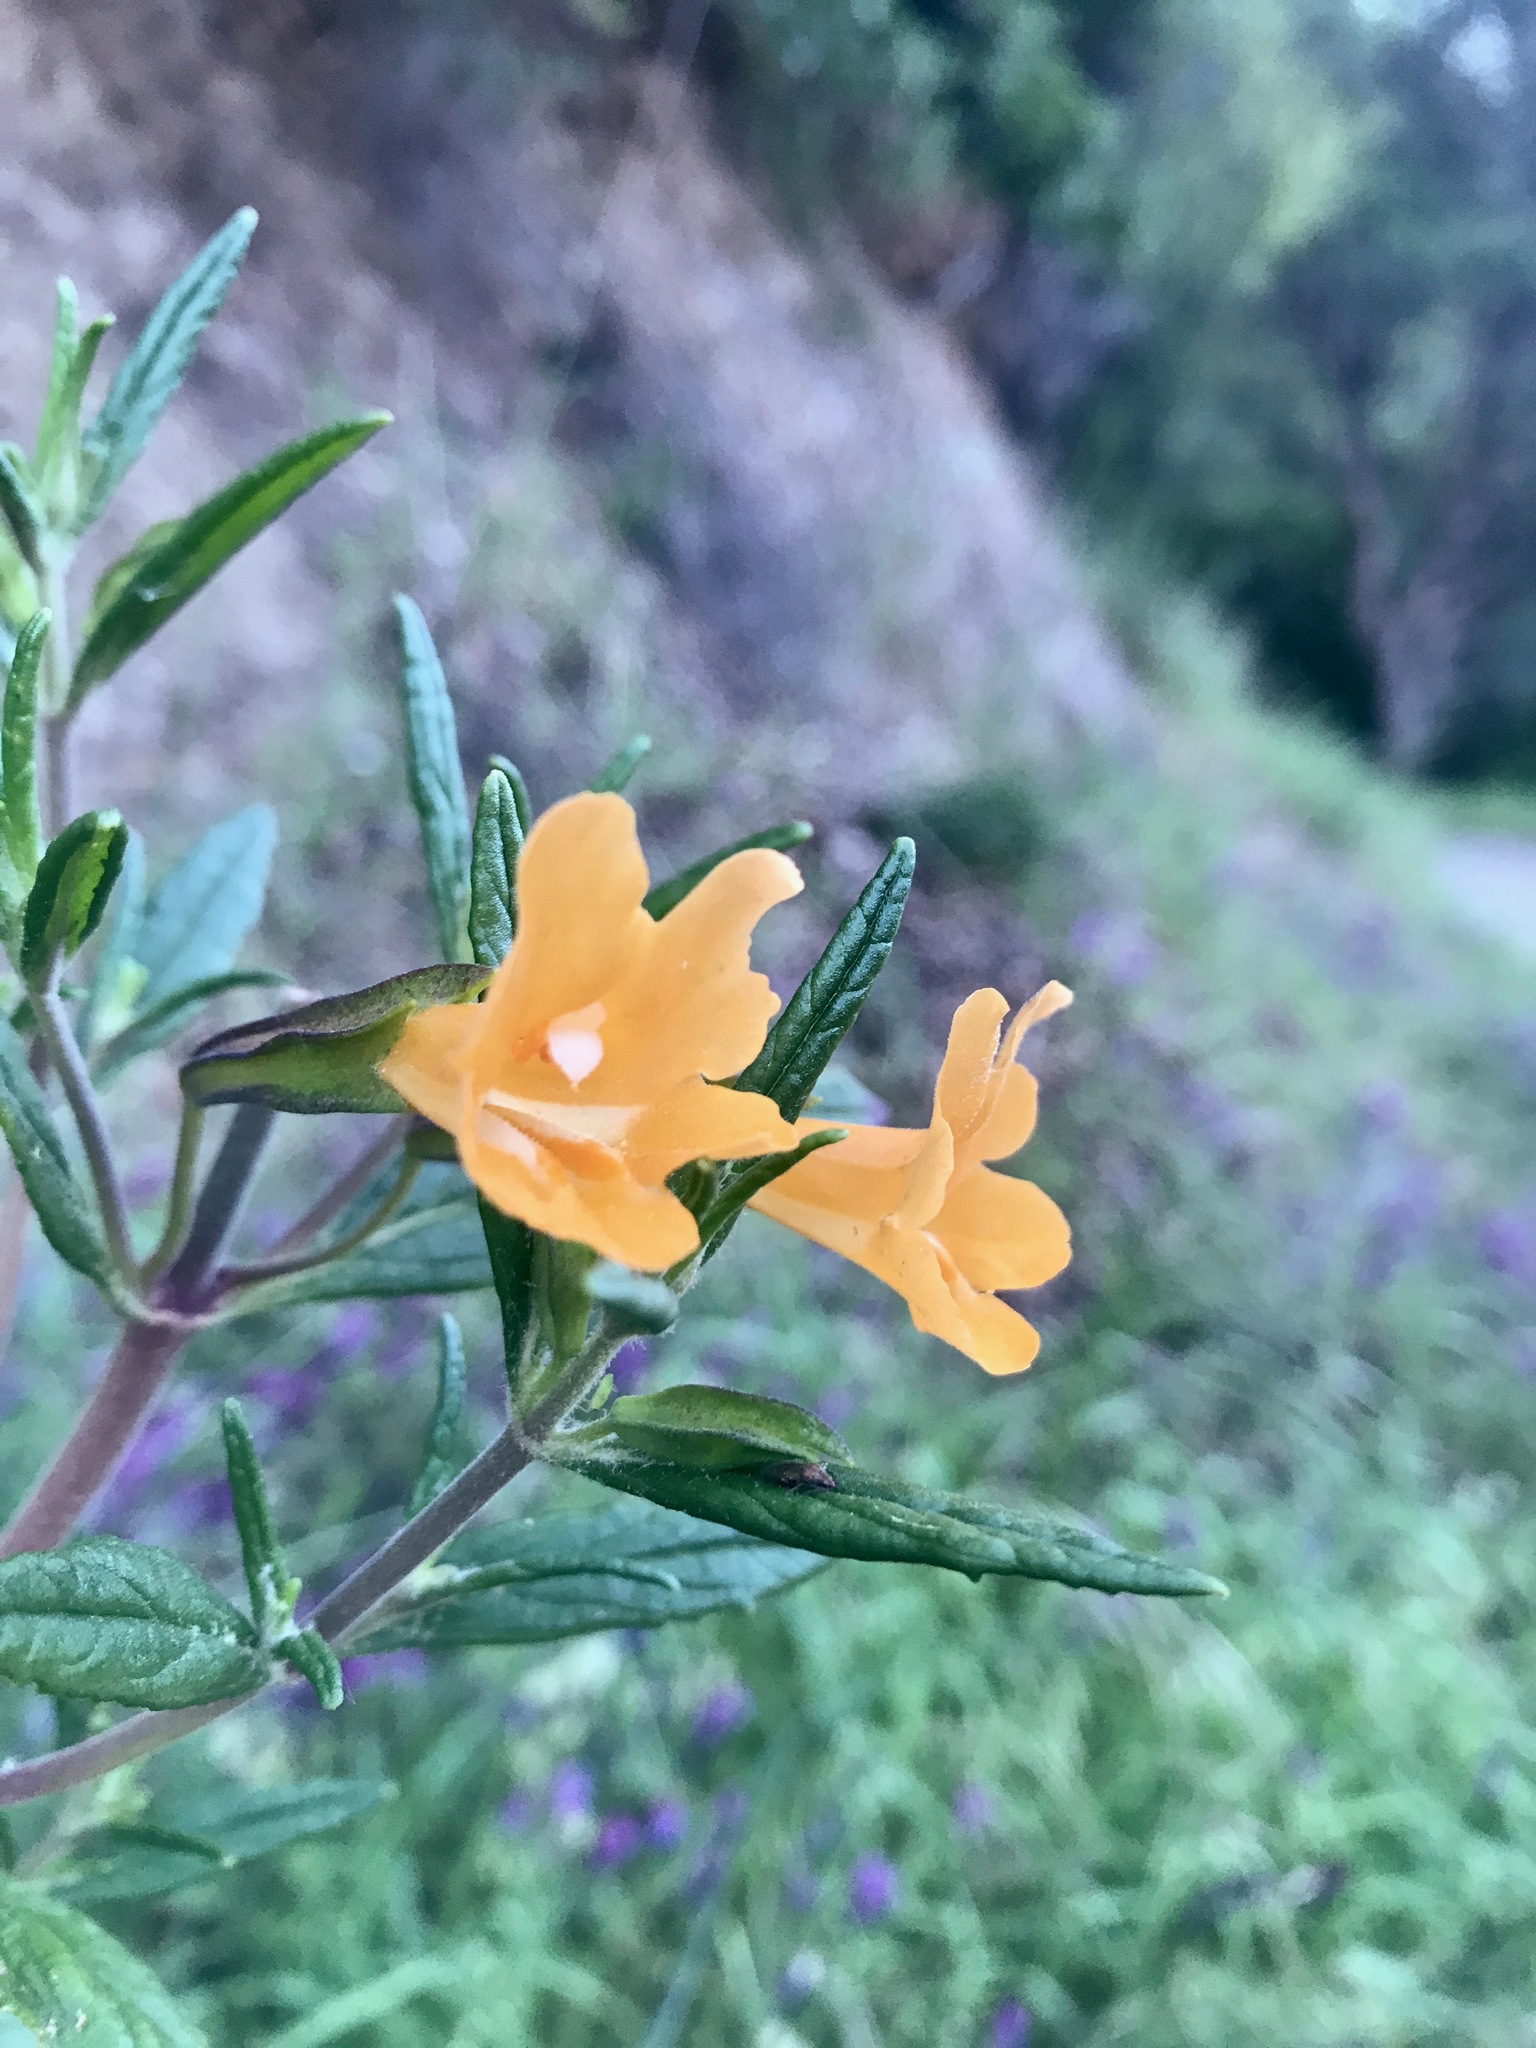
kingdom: Plantae
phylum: Tracheophyta
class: Magnoliopsida
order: Lamiales
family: Phrymaceae
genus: Diplacus
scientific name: Diplacus aurantiacus
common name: Bush monkey-flower
